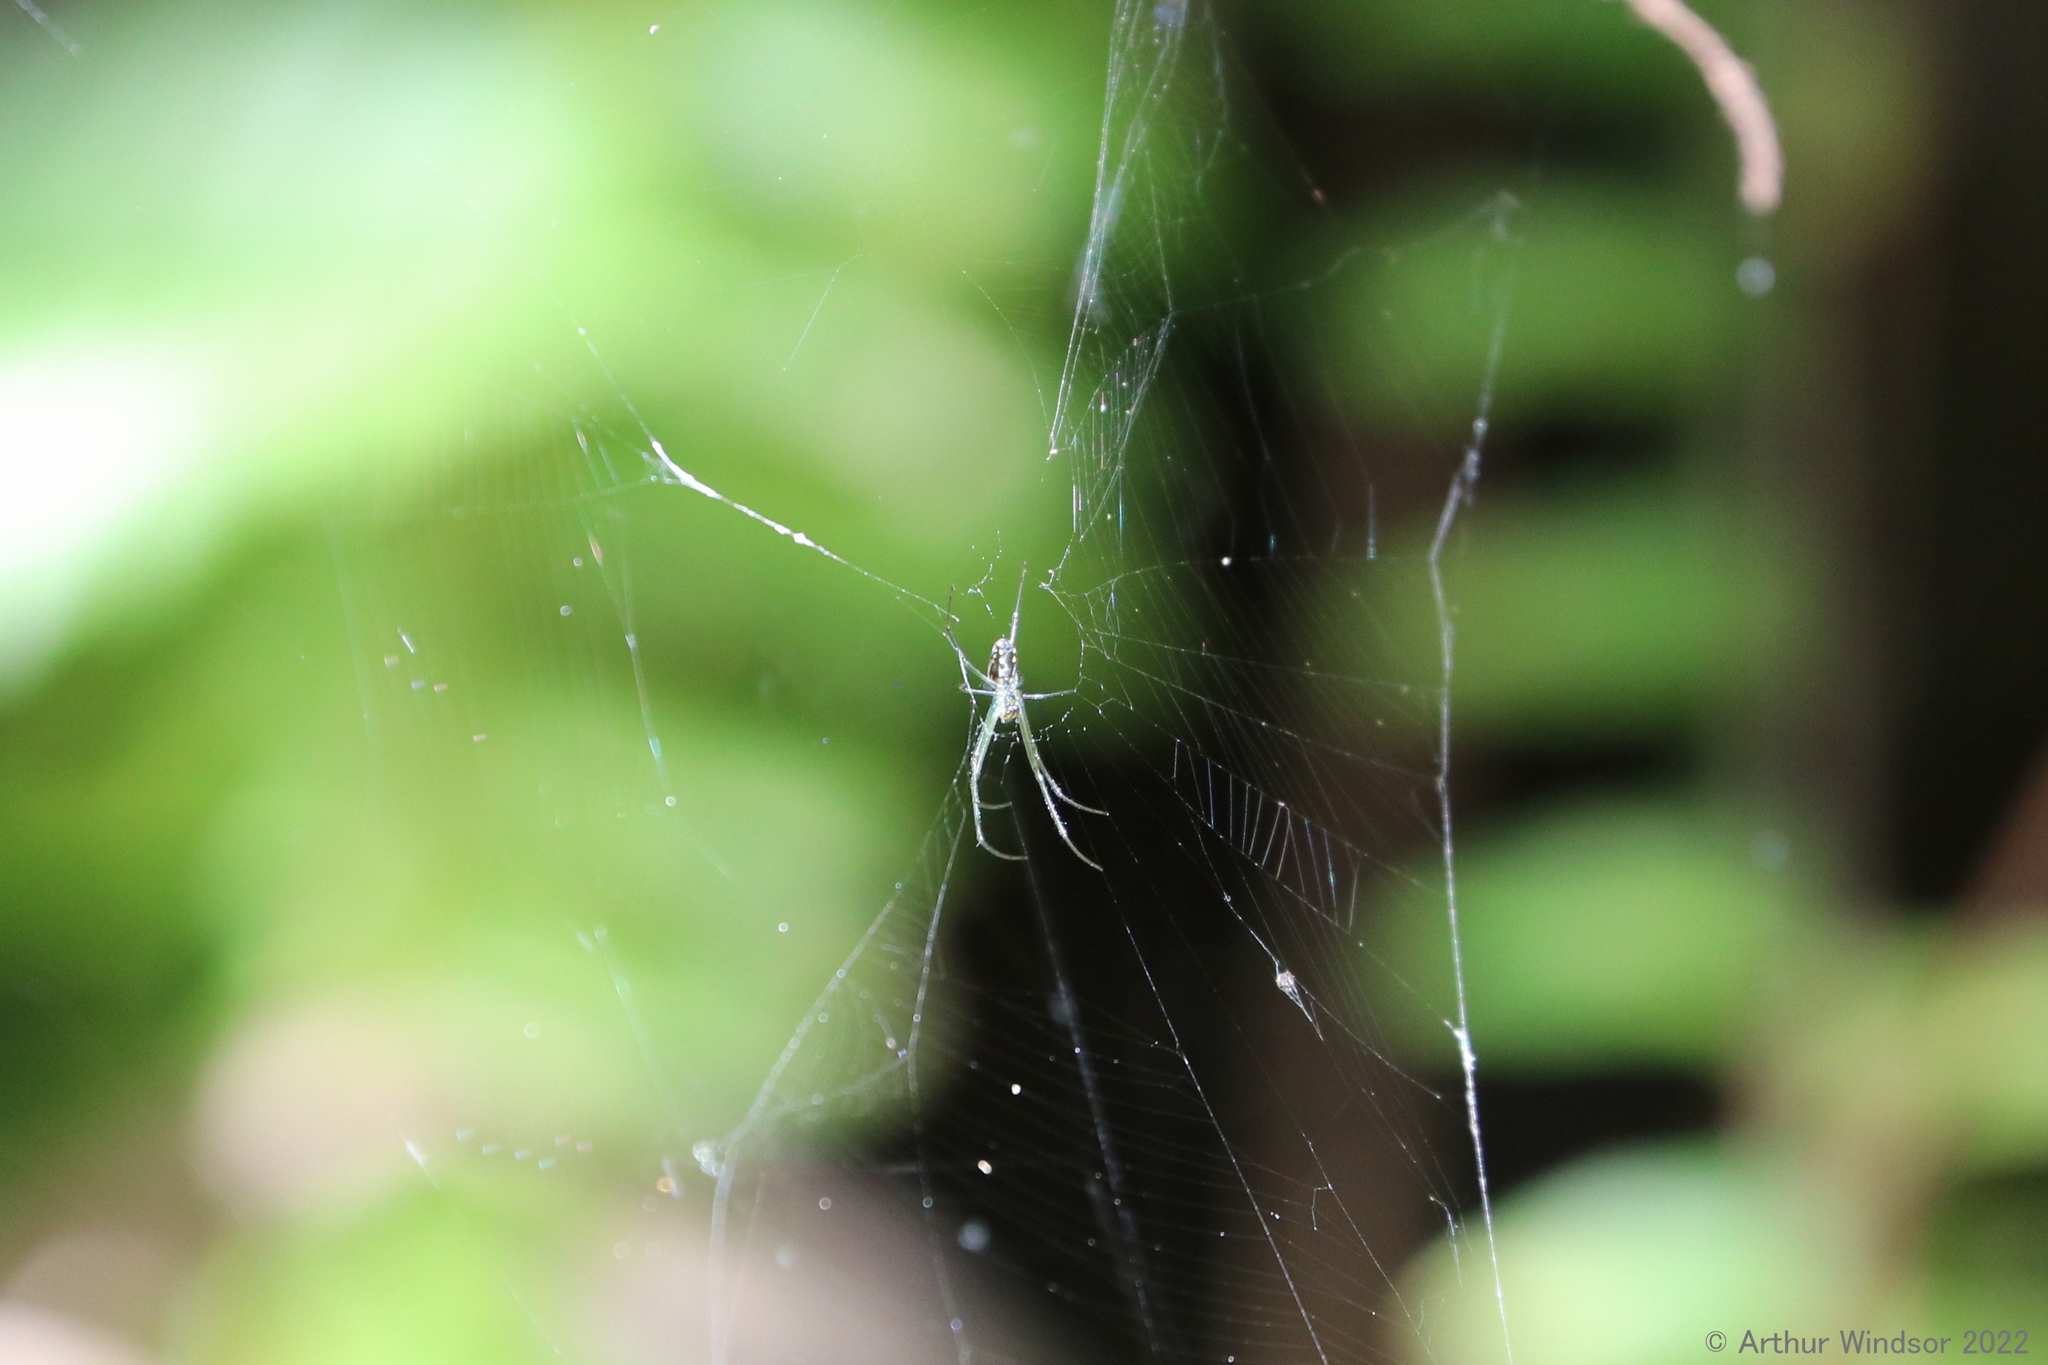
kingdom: Animalia
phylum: Arthropoda
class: Arachnida
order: Araneae
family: Tetragnathidae
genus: Leucauge
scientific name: Leucauge argyra
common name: Longjawed orb weavers
